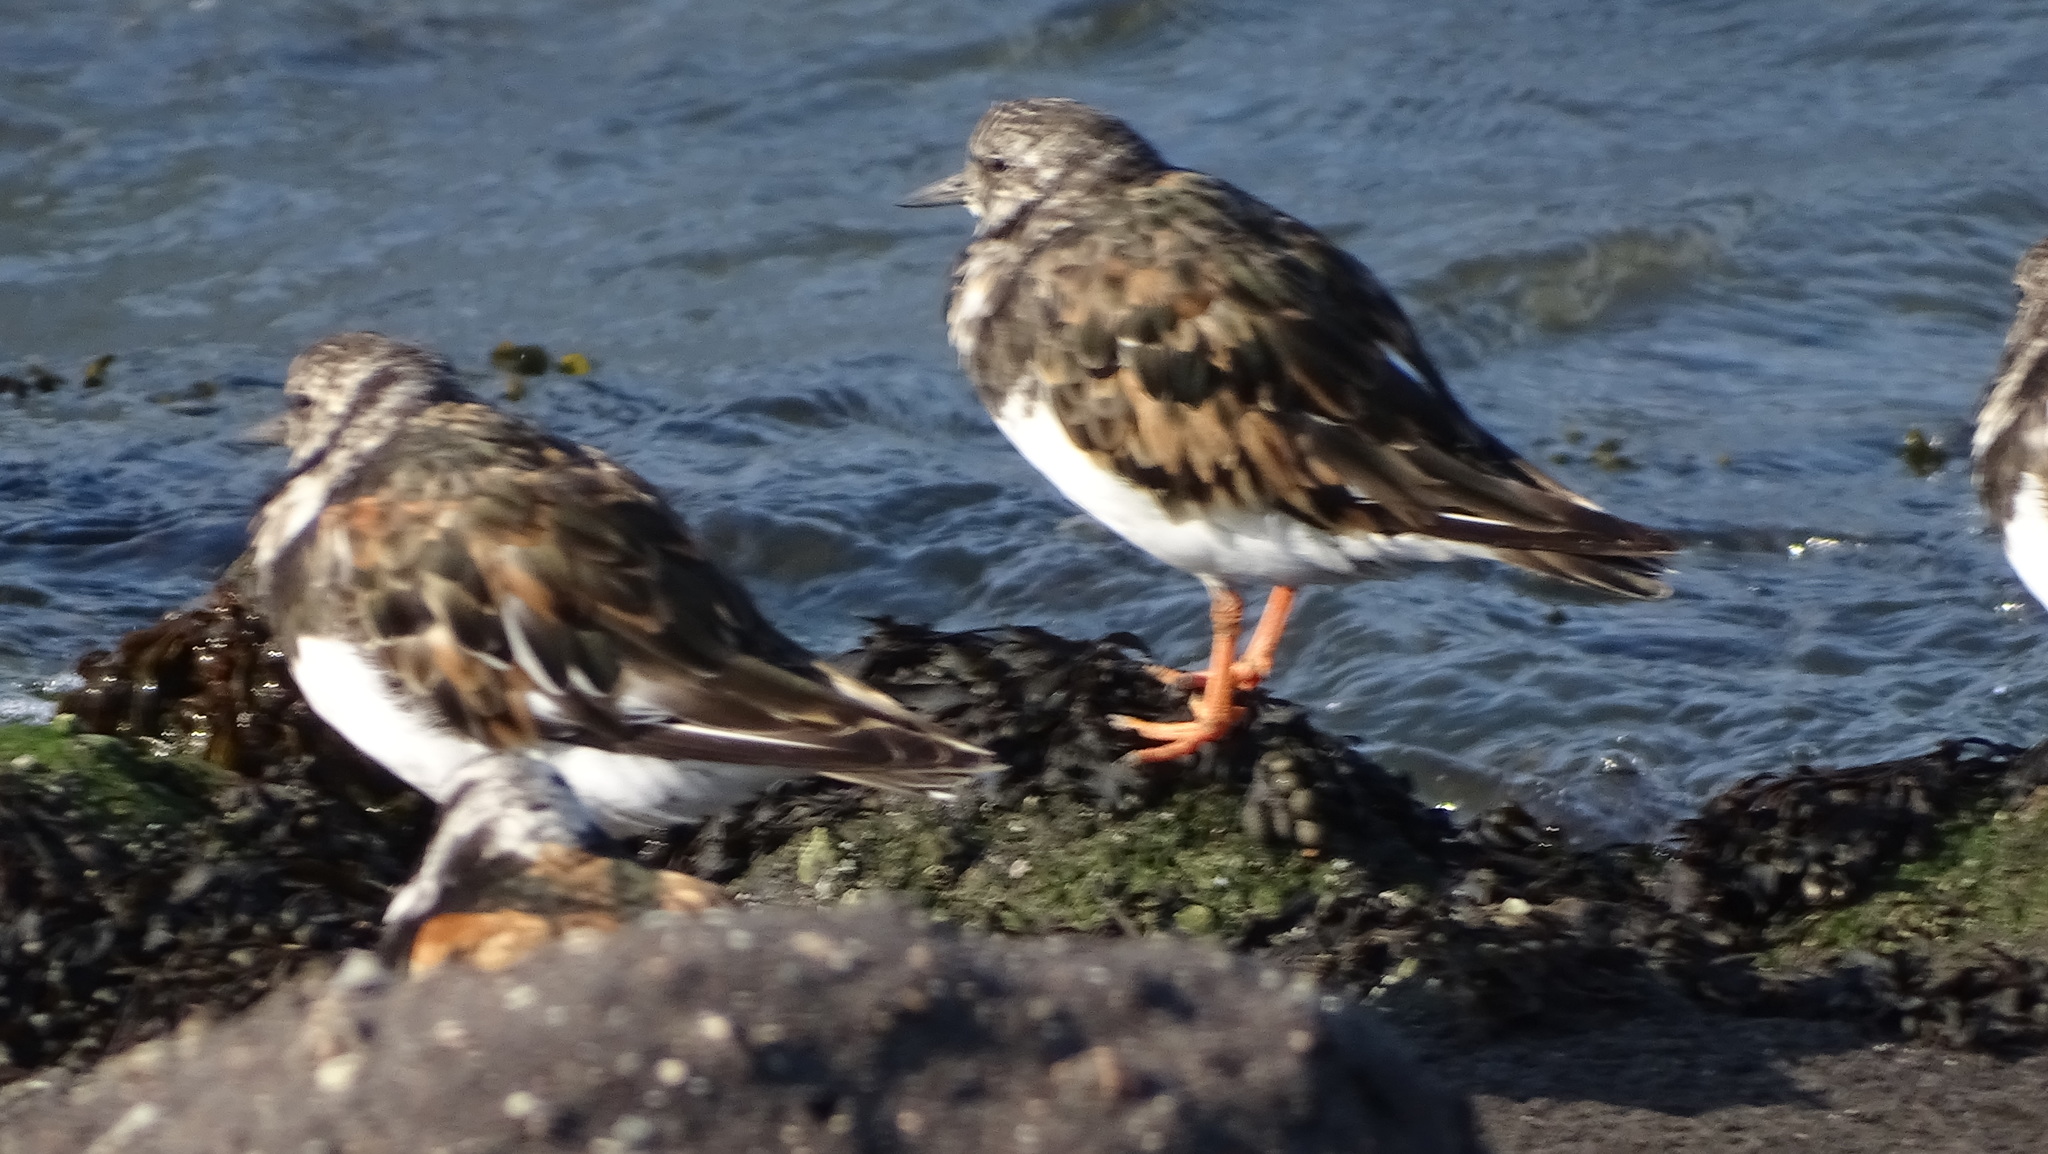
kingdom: Animalia
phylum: Chordata
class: Aves
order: Charadriiformes
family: Scolopacidae
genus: Arenaria
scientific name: Arenaria interpres
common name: Ruddy turnstone
